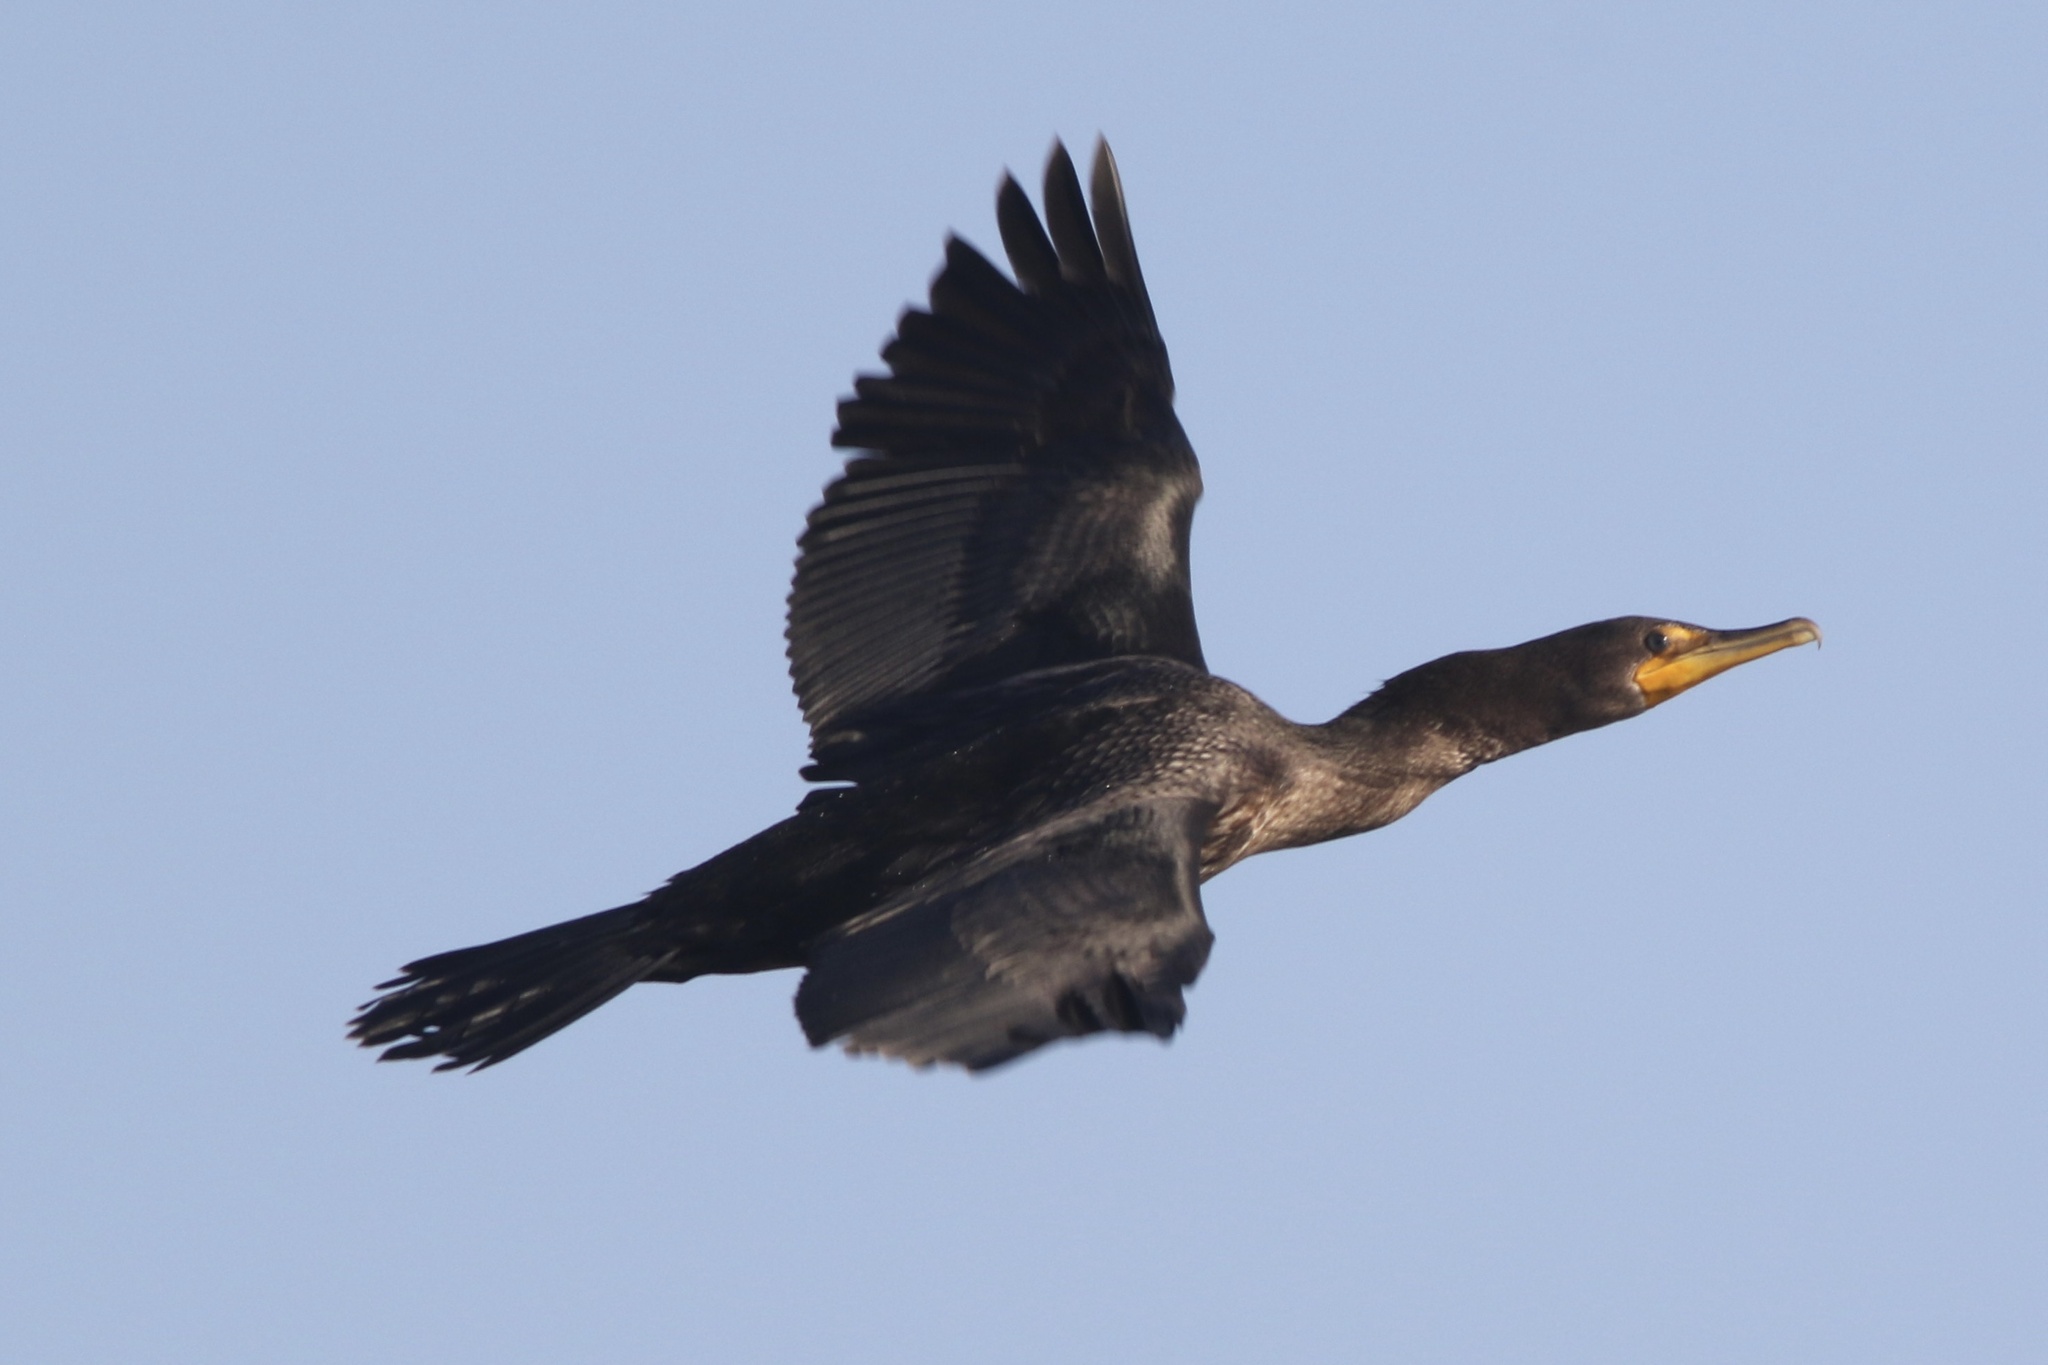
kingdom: Animalia
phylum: Chordata
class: Aves
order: Suliformes
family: Phalacrocoracidae
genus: Phalacrocorax
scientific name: Phalacrocorax auritus
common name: Double-crested cormorant
